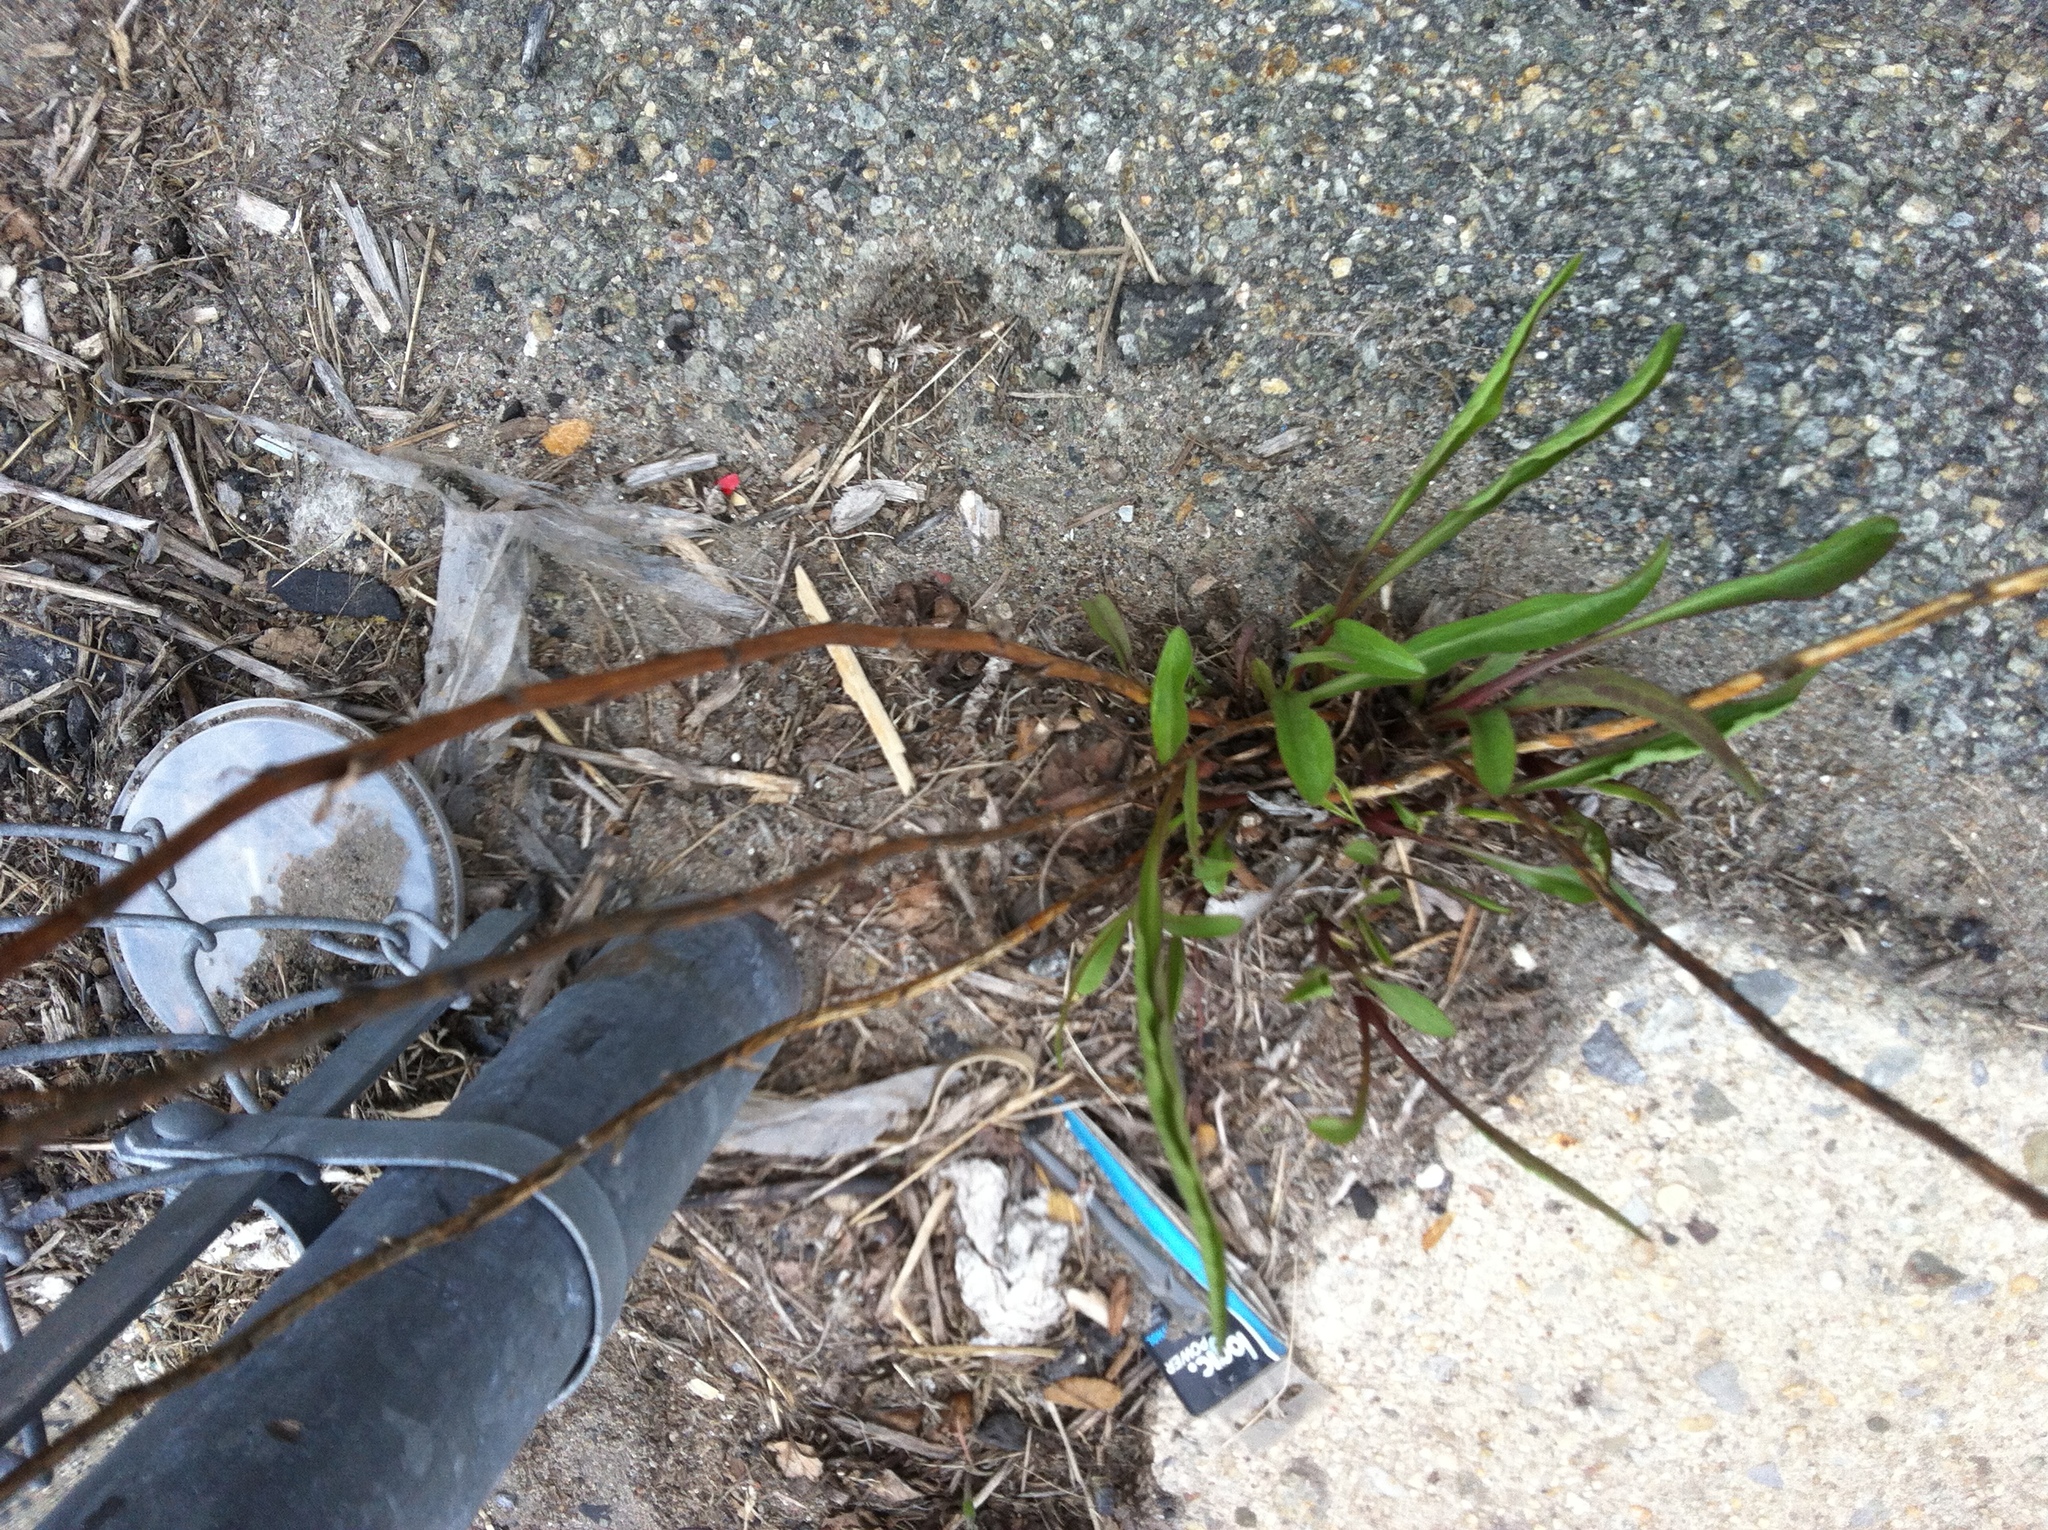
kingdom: Plantae
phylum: Tracheophyta
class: Magnoliopsida
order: Asterales
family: Asteraceae
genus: Solidago
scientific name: Solidago sempervirens
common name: Salt-marsh goldenrod
